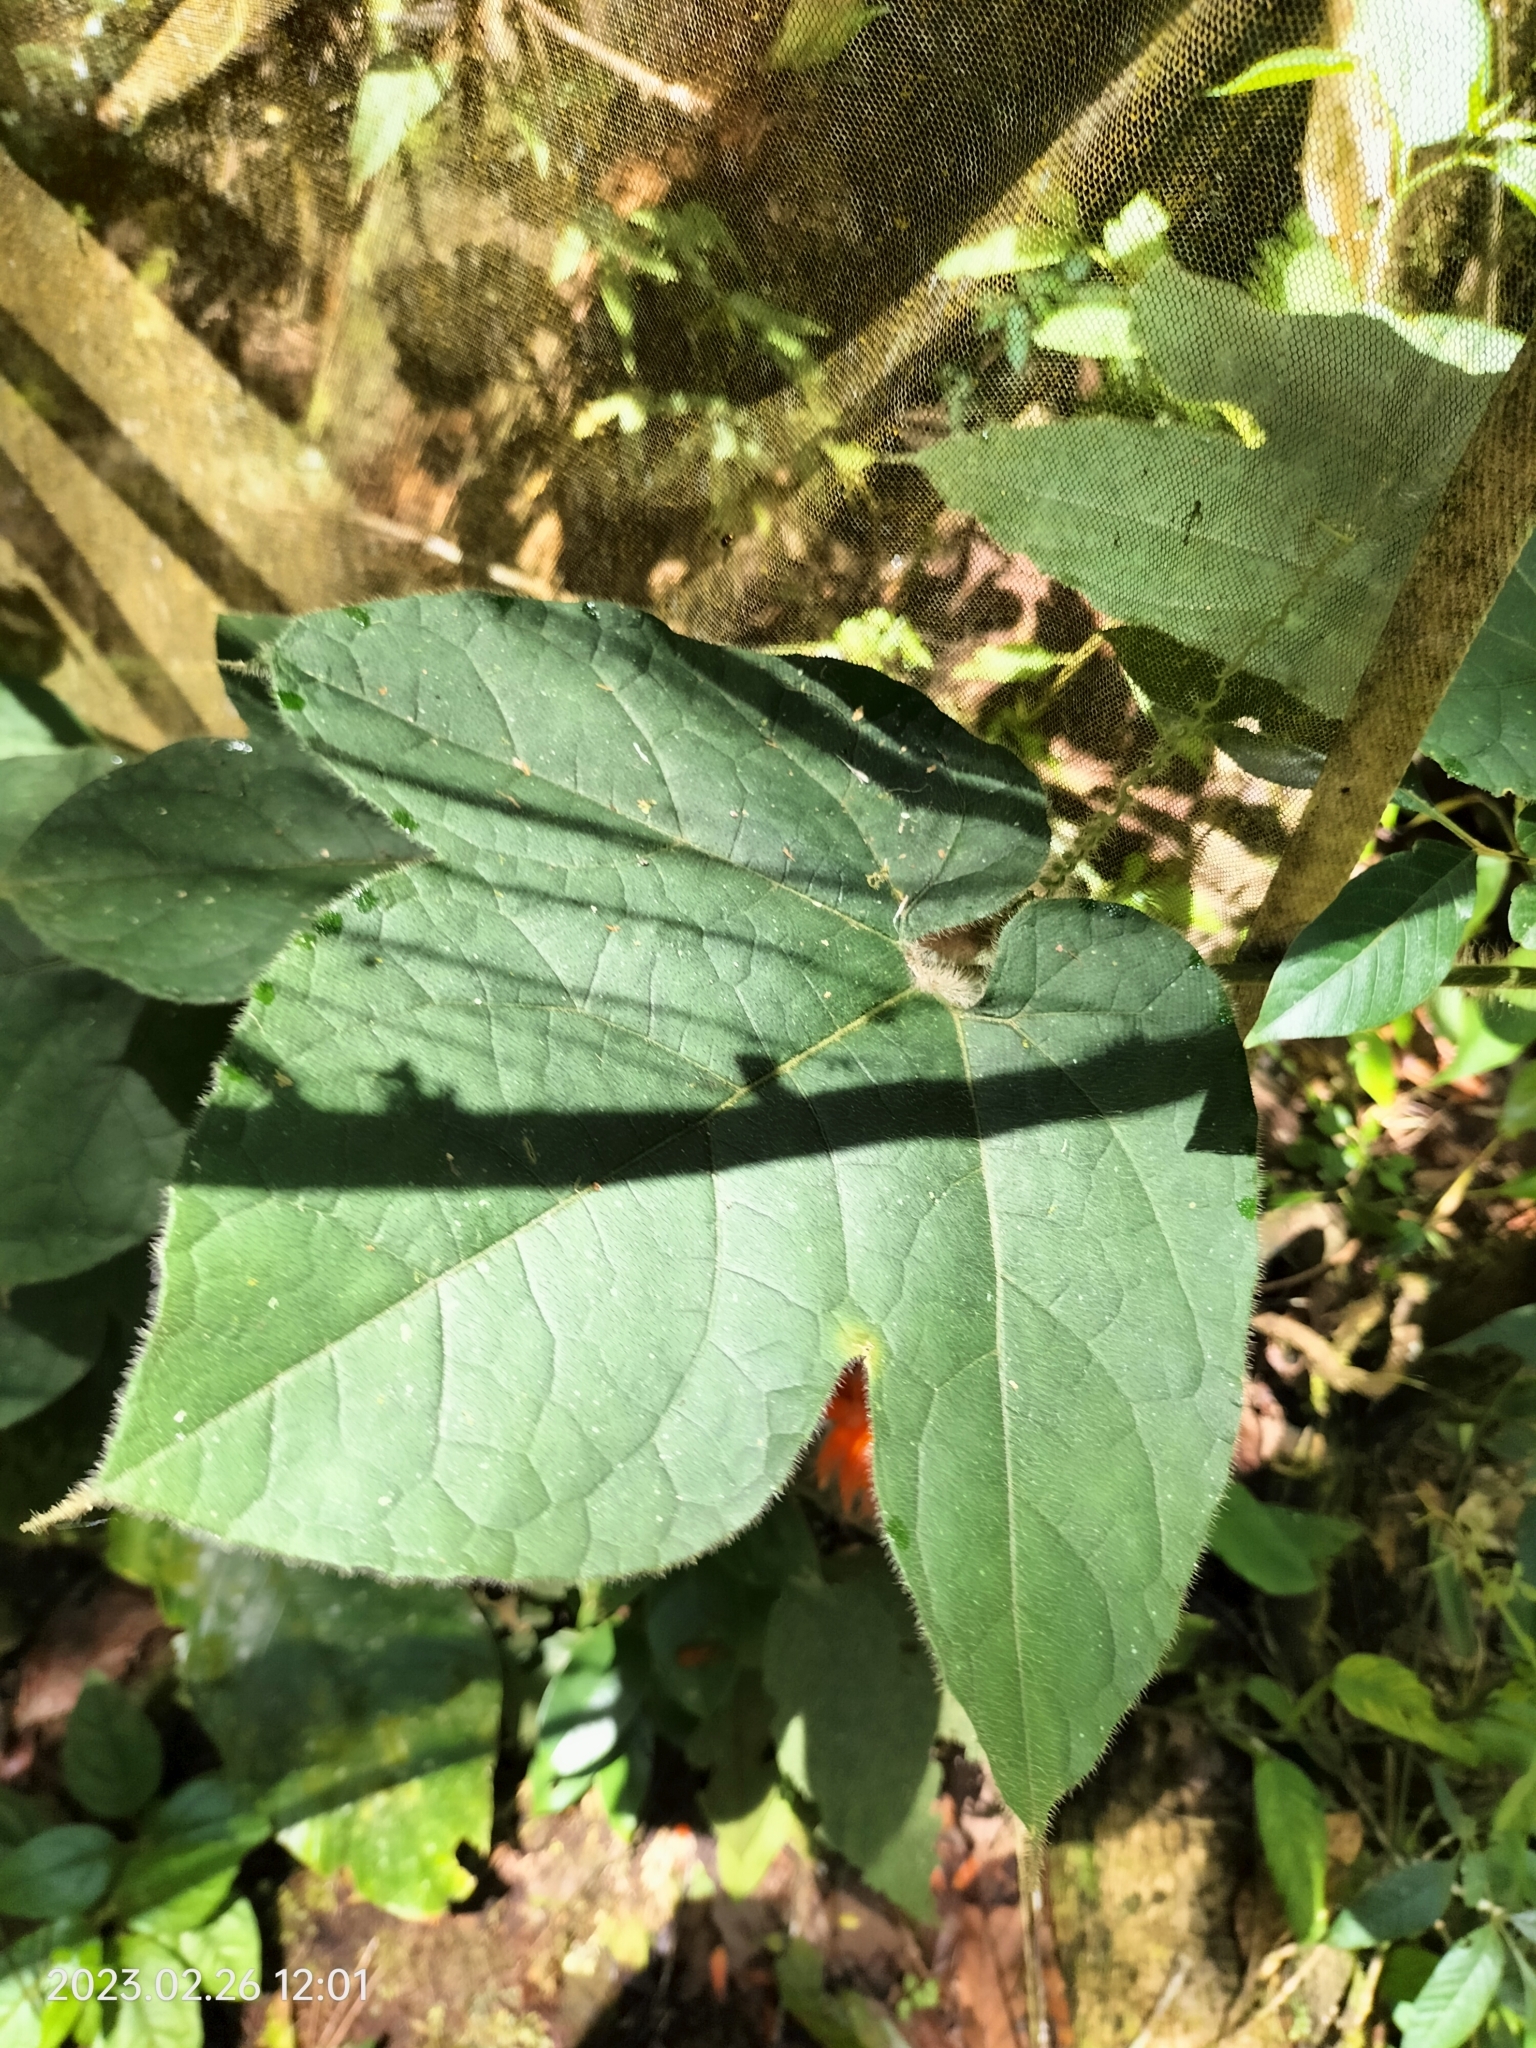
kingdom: Plantae
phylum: Tracheophyta
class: Magnoliopsida
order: Cucurbitales
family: Cucurbitaceae
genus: Gurania
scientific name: Gurania eriantha
